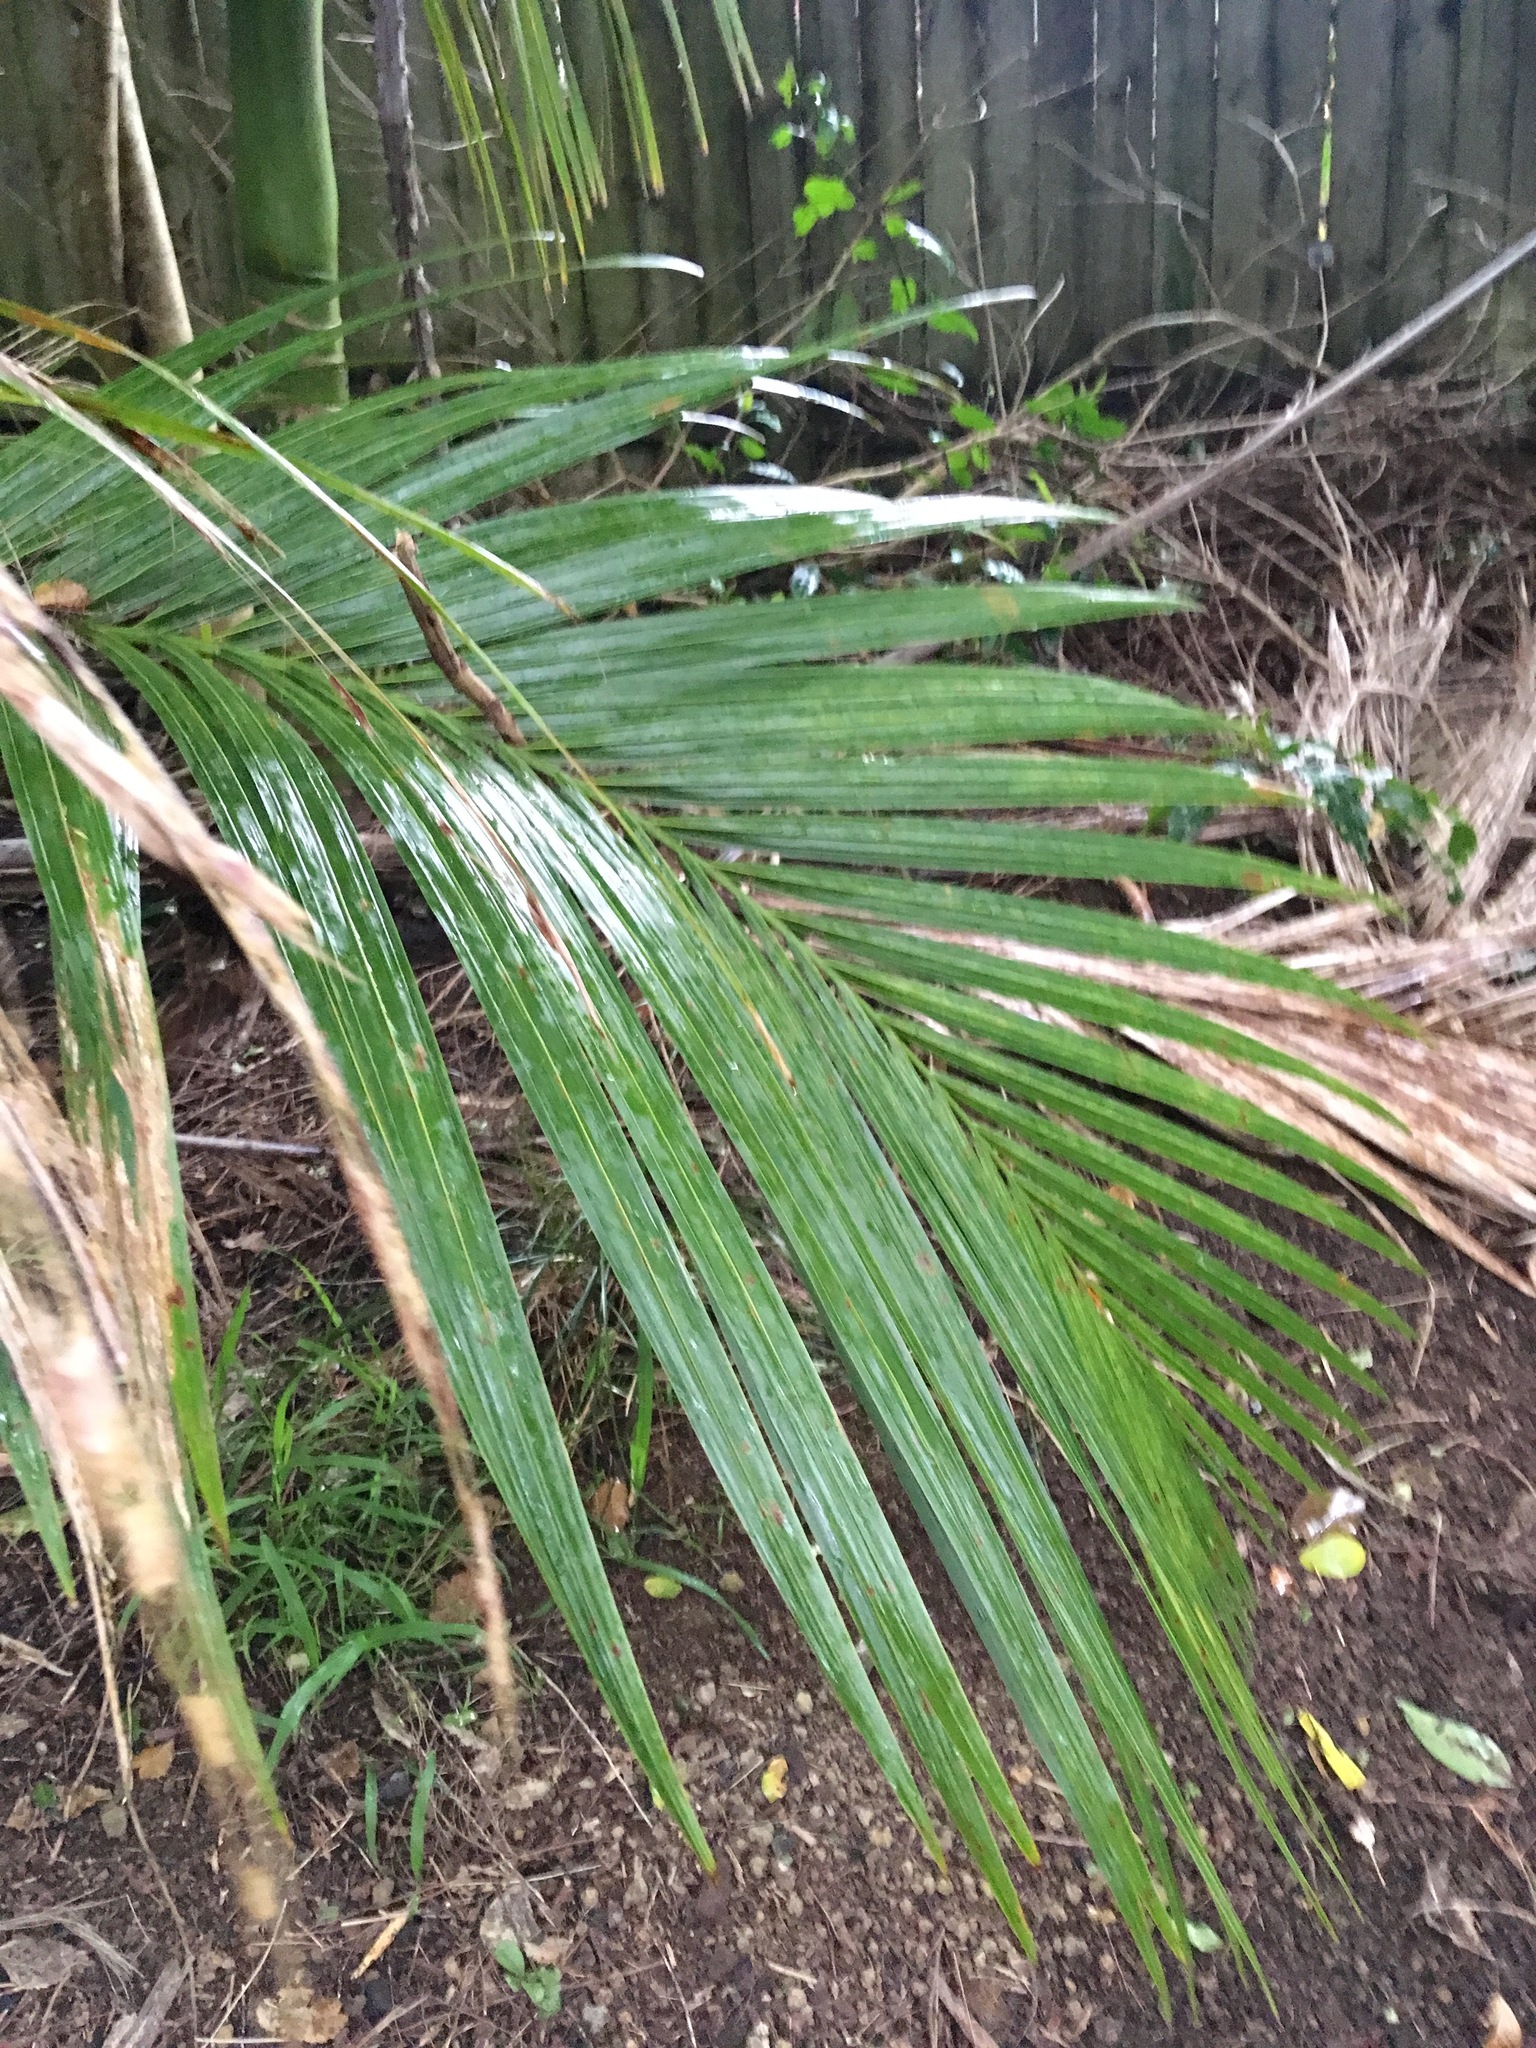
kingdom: Plantae
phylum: Tracheophyta
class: Liliopsida
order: Arecales
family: Arecaceae
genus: Rhopalostylis
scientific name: Rhopalostylis sapida
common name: Feather-duster palm
